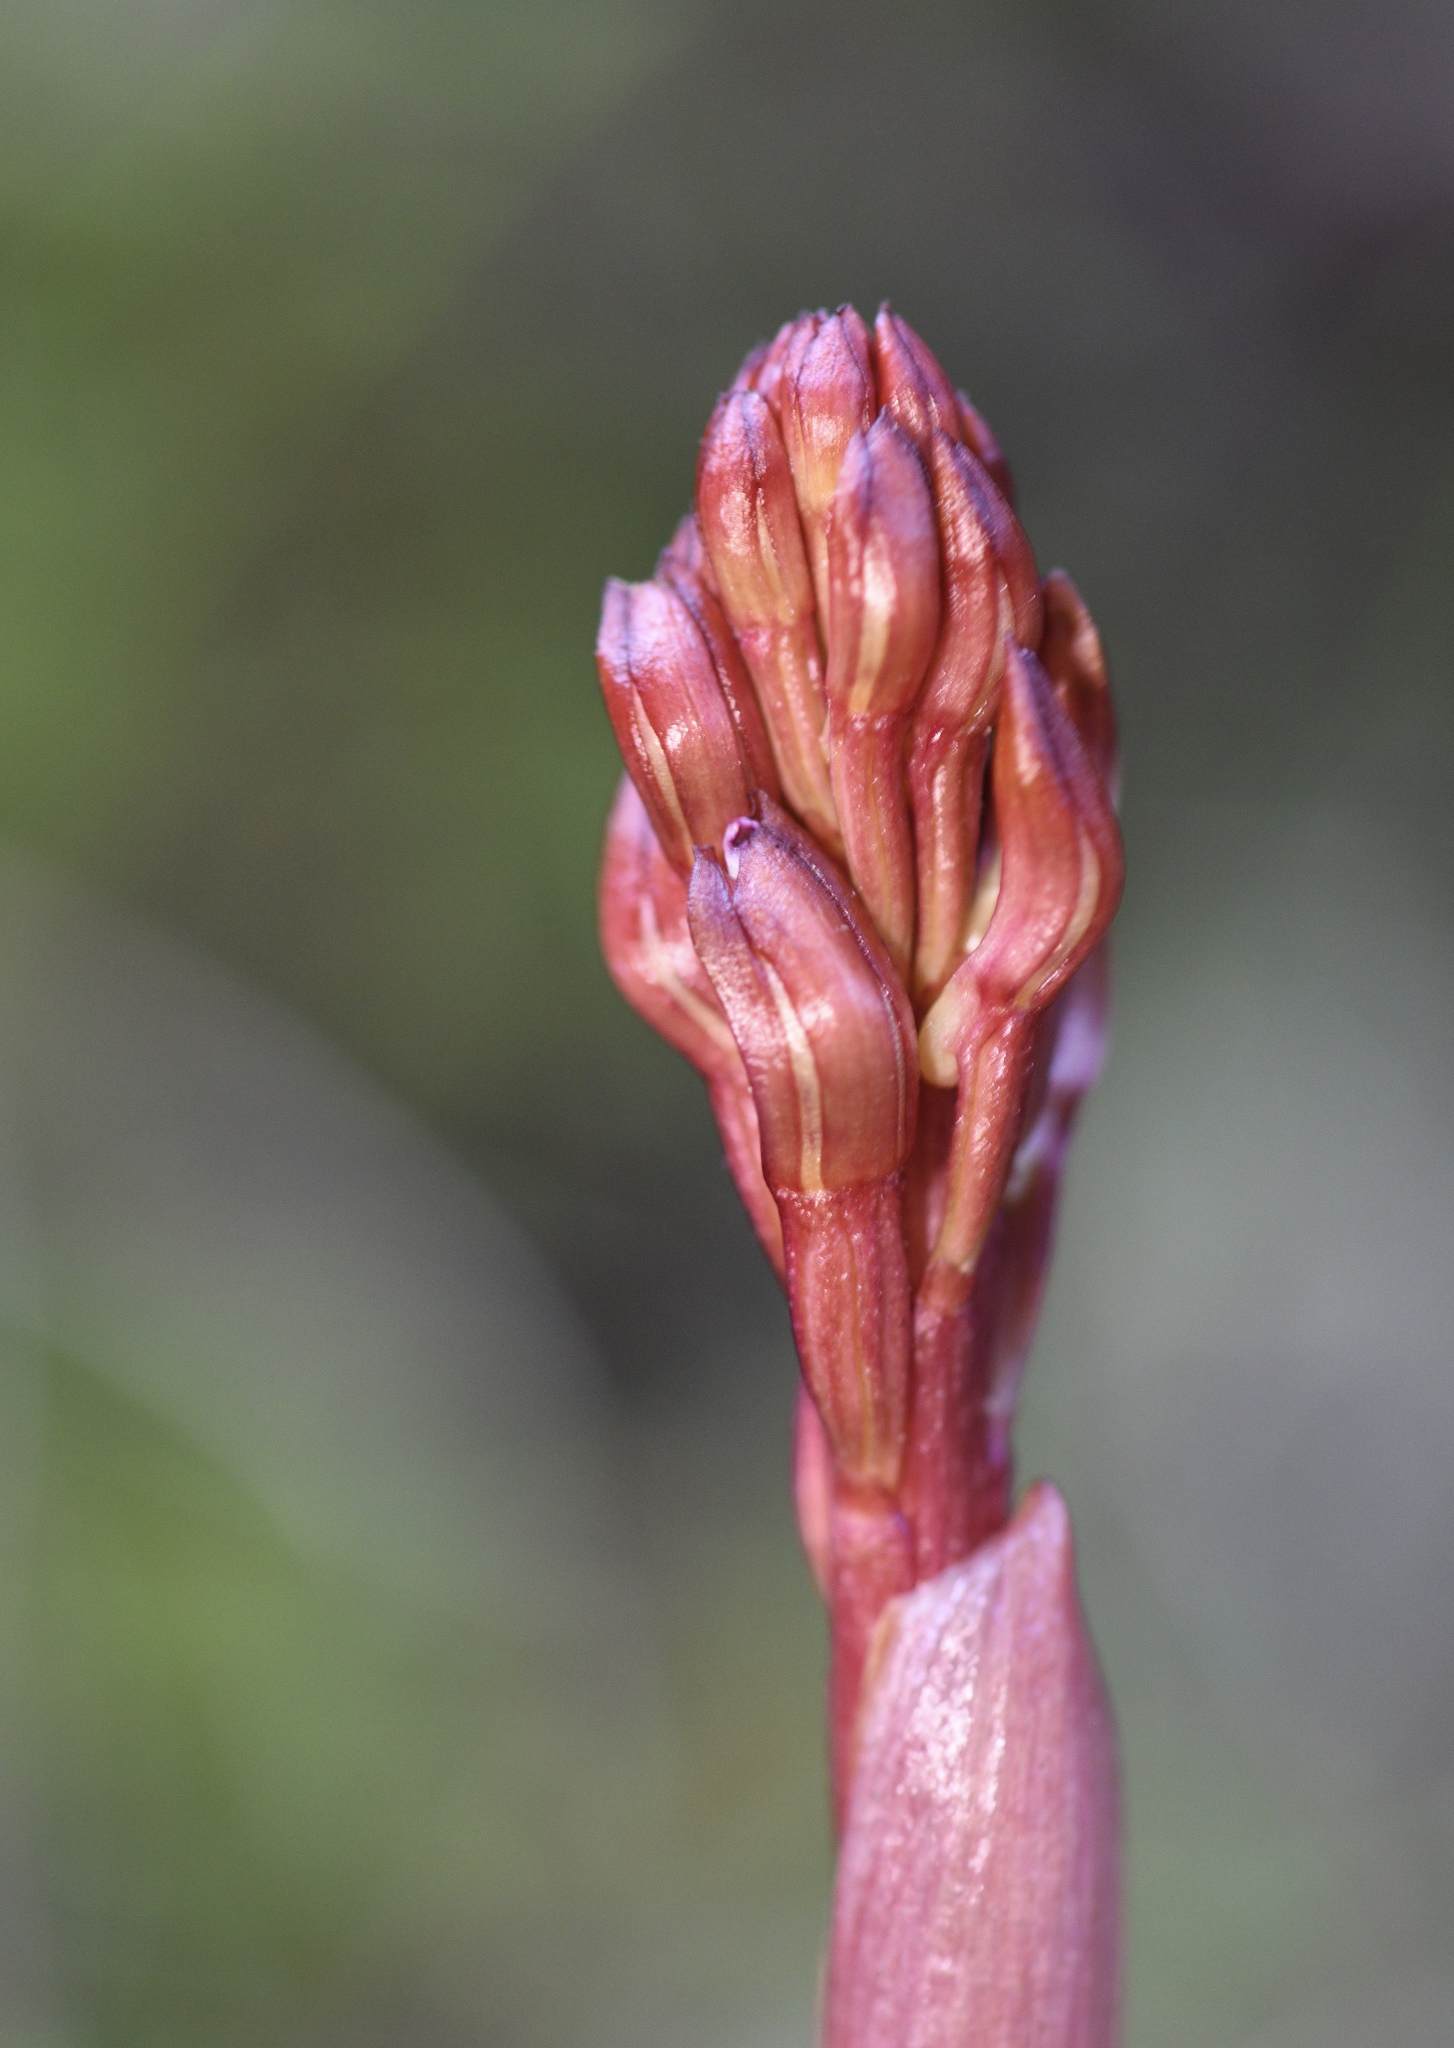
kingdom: Plantae
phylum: Tracheophyta
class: Liliopsida
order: Asparagales
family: Orchidaceae
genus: Corallorhiza
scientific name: Corallorhiza maculata
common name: Spotted coralroot
